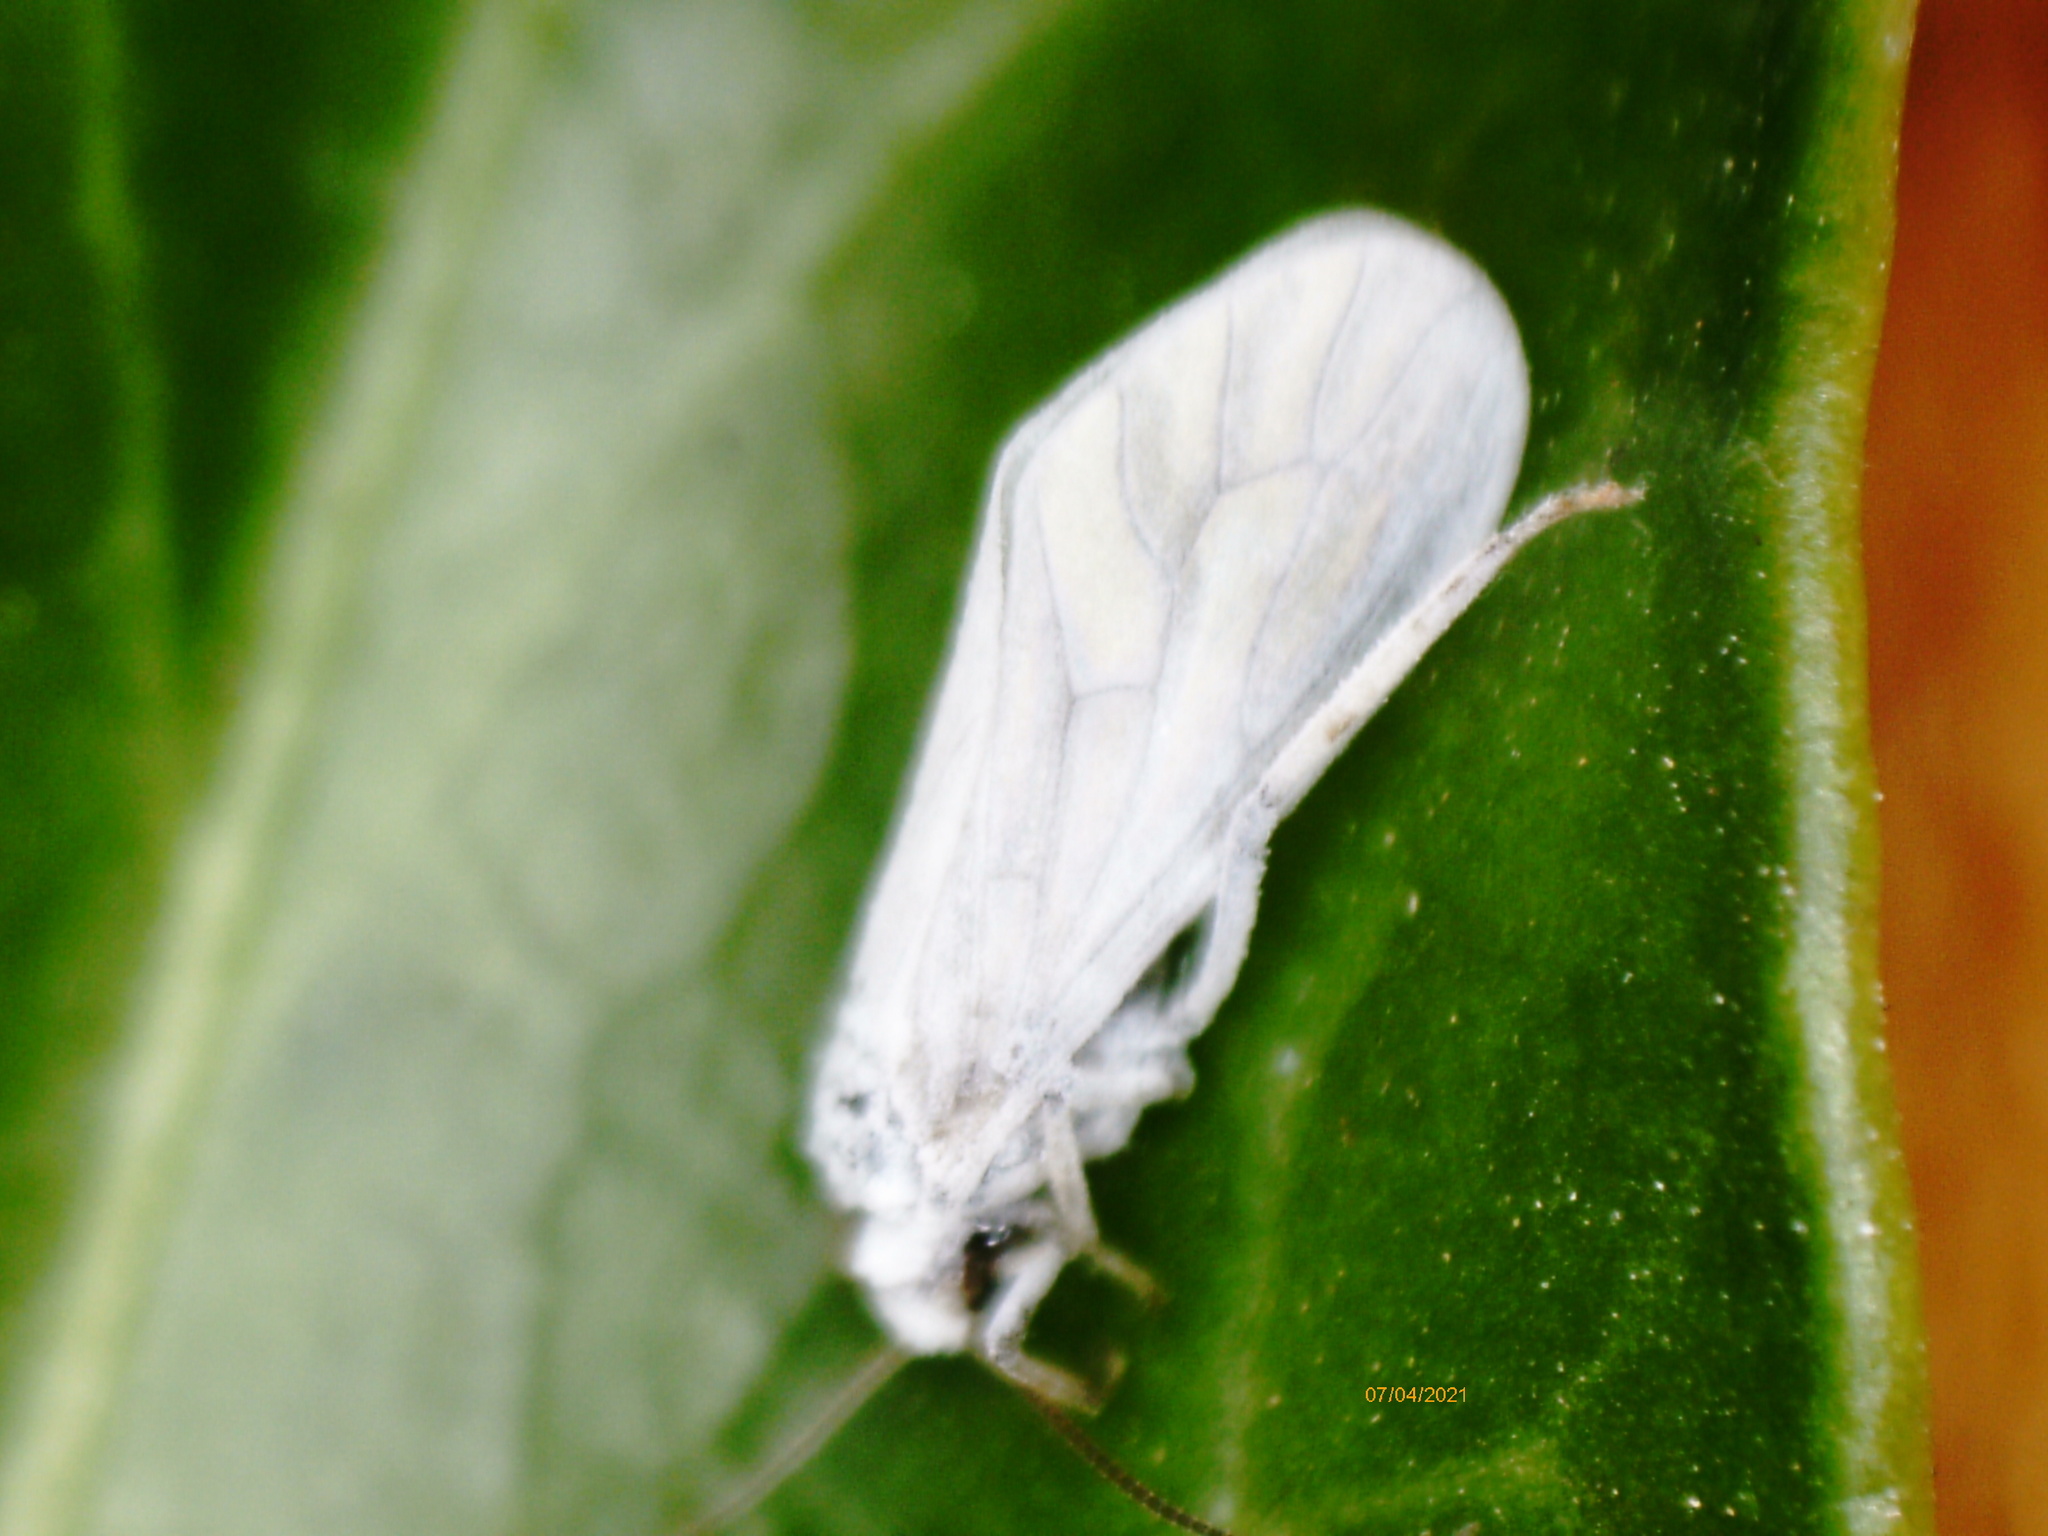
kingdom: Animalia
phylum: Arthropoda
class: Insecta
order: Neuroptera
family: Coniopterygidae
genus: Conwentzia
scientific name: Conwentzia psociformis
